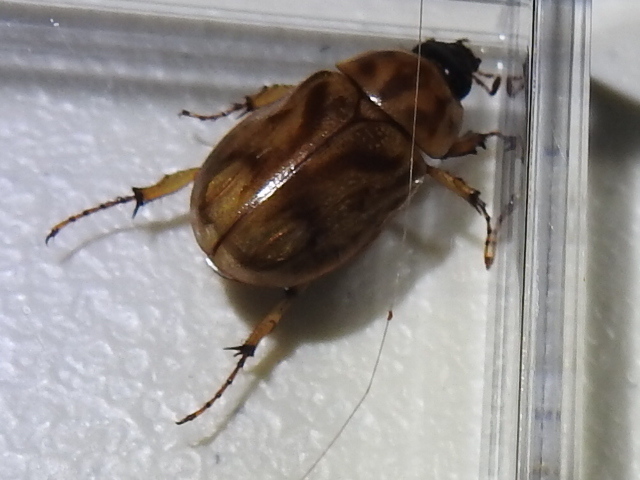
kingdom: Animalia
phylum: Arthropoda
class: Insecta
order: Coleoptera
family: Scarabaeidae
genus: Cyclocephala
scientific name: Cyclocephala lunulata
